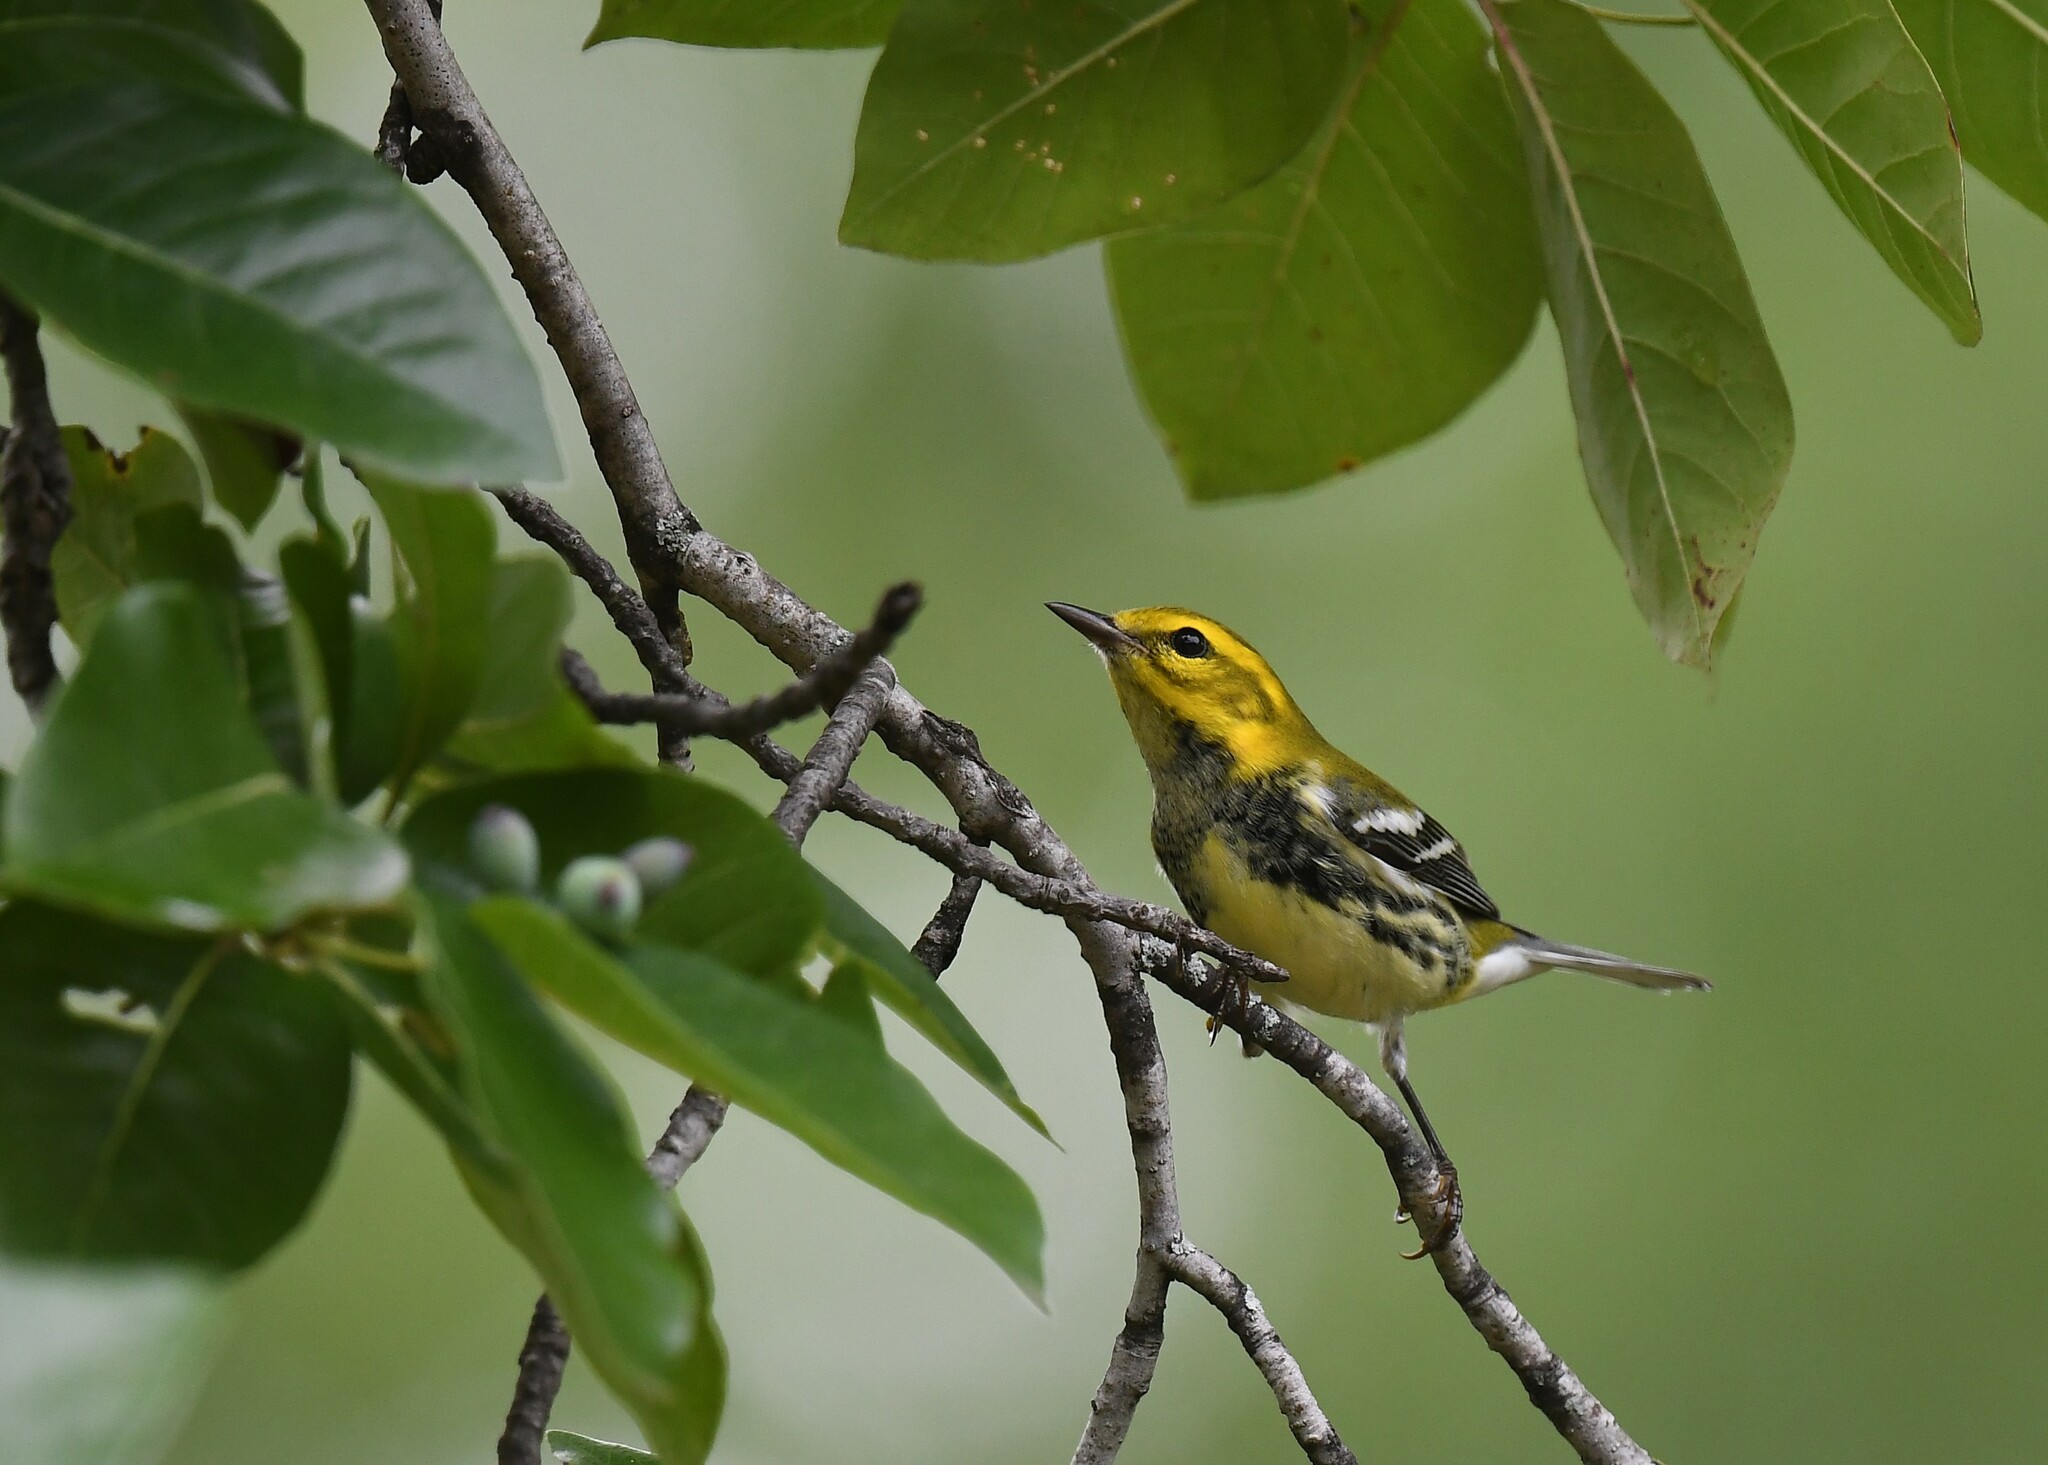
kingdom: Animalia
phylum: Chordata
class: Aves
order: Passeriformes
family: Parulidae
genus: Setophaga
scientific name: Setophaga virens
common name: Black-throated green warbler
